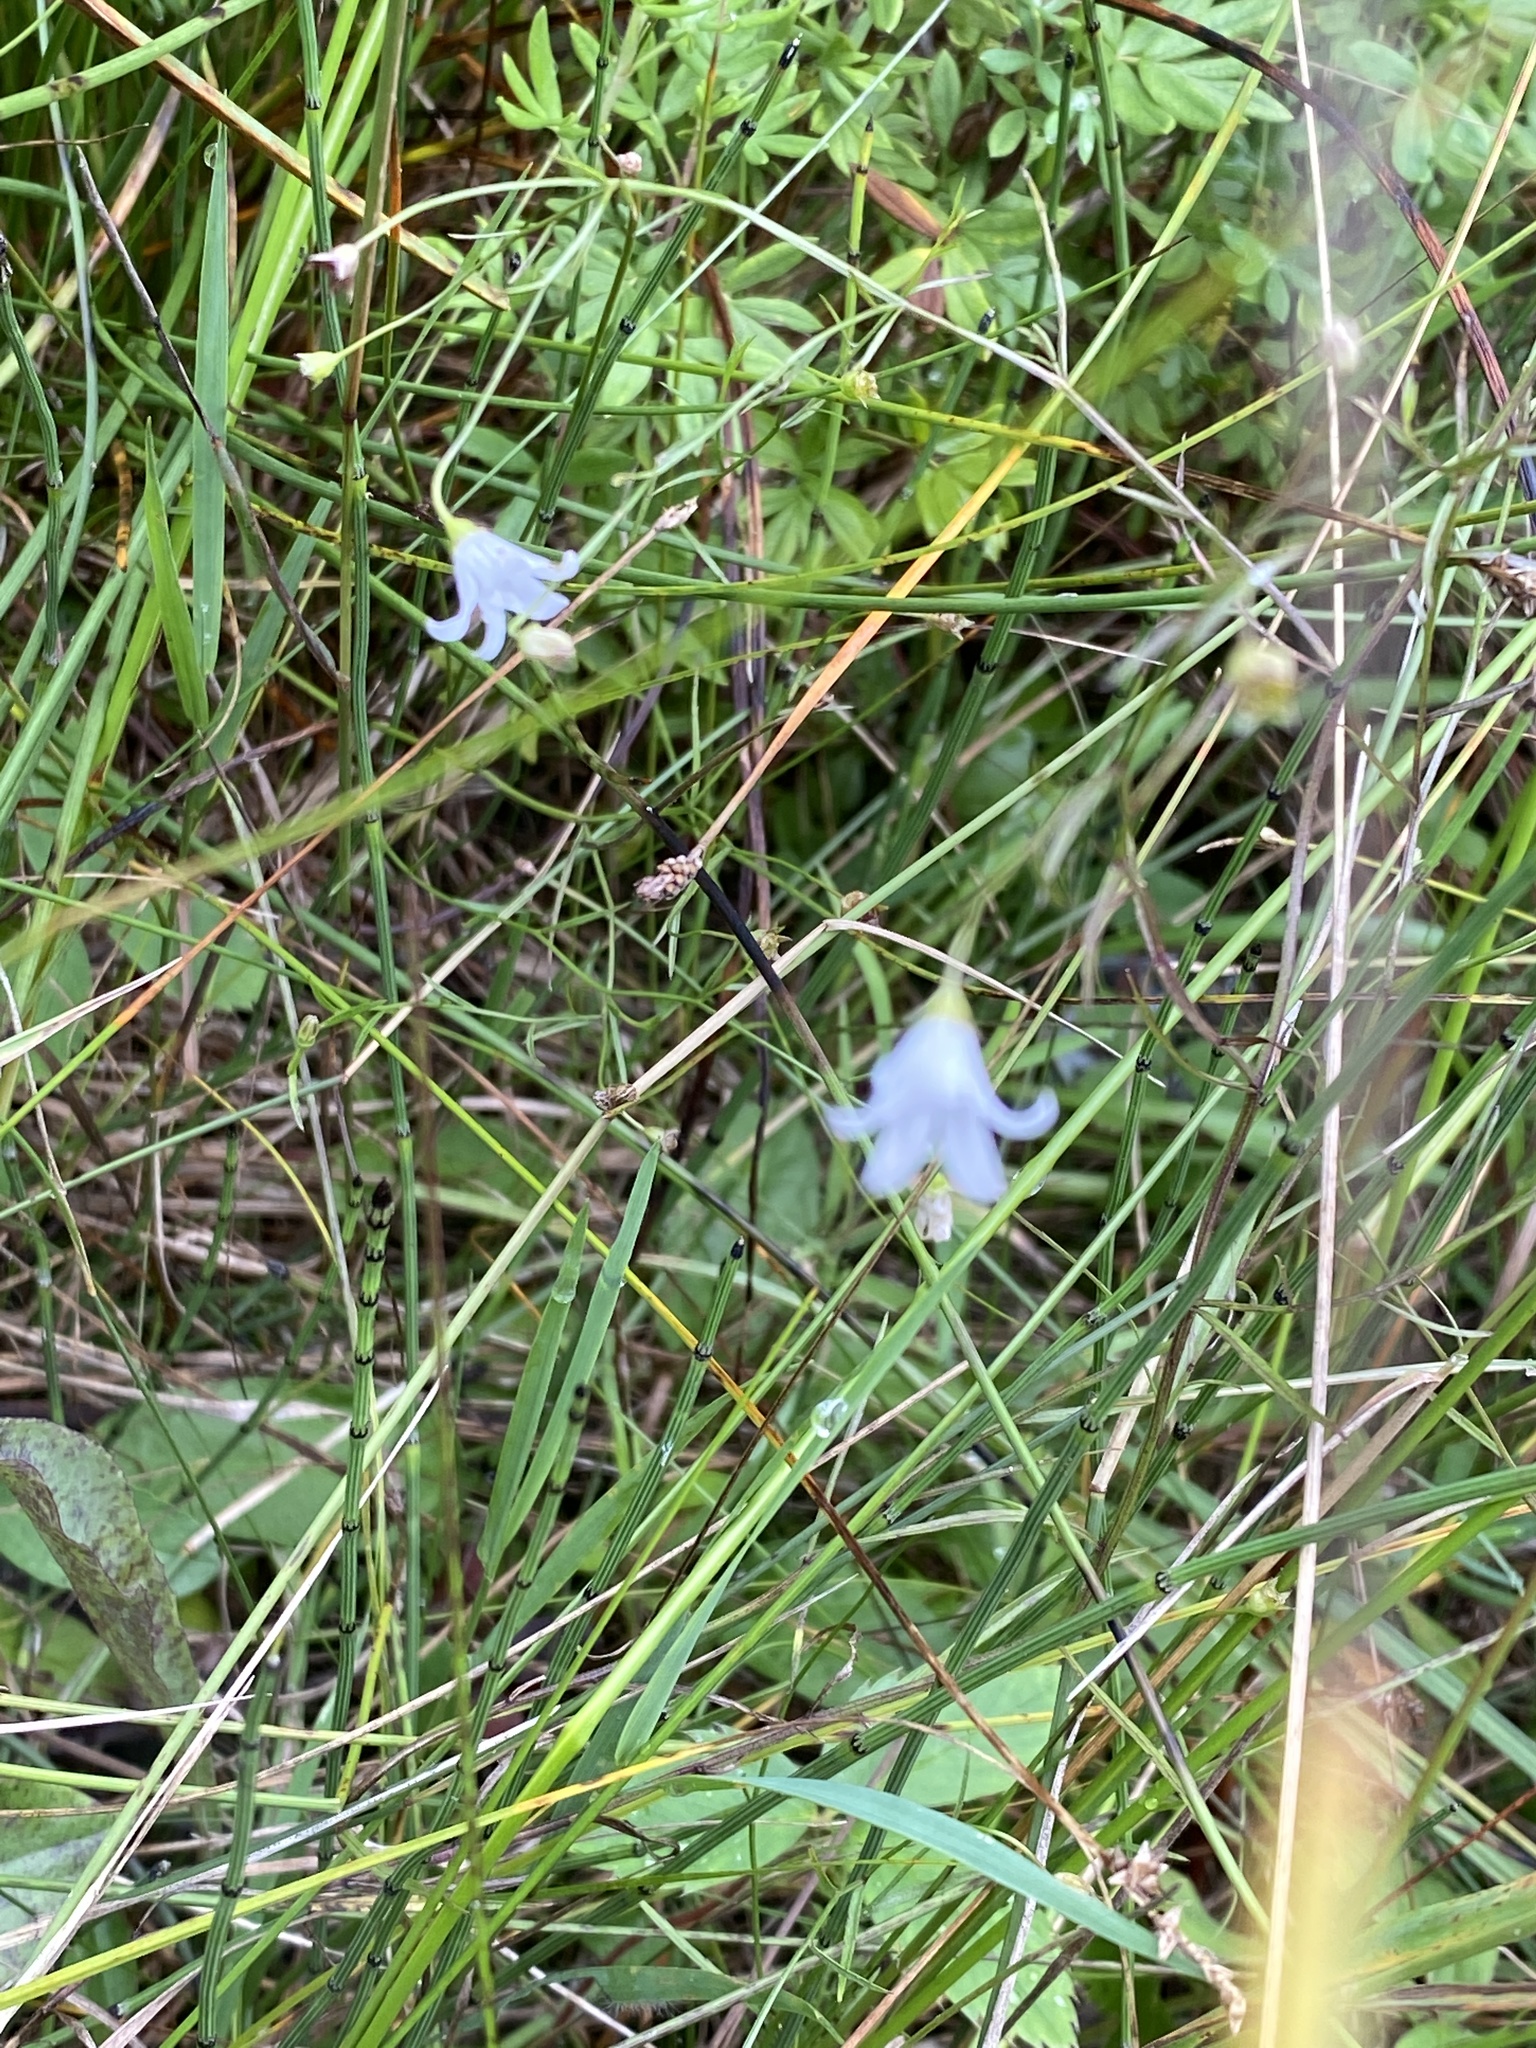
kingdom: Plantae
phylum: Tracheophyta
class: Magnoliopsida
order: Asterales
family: Campanulaceae
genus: Palustricodon
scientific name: Palustricodon aparinoides
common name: Bedstraw bellflower
